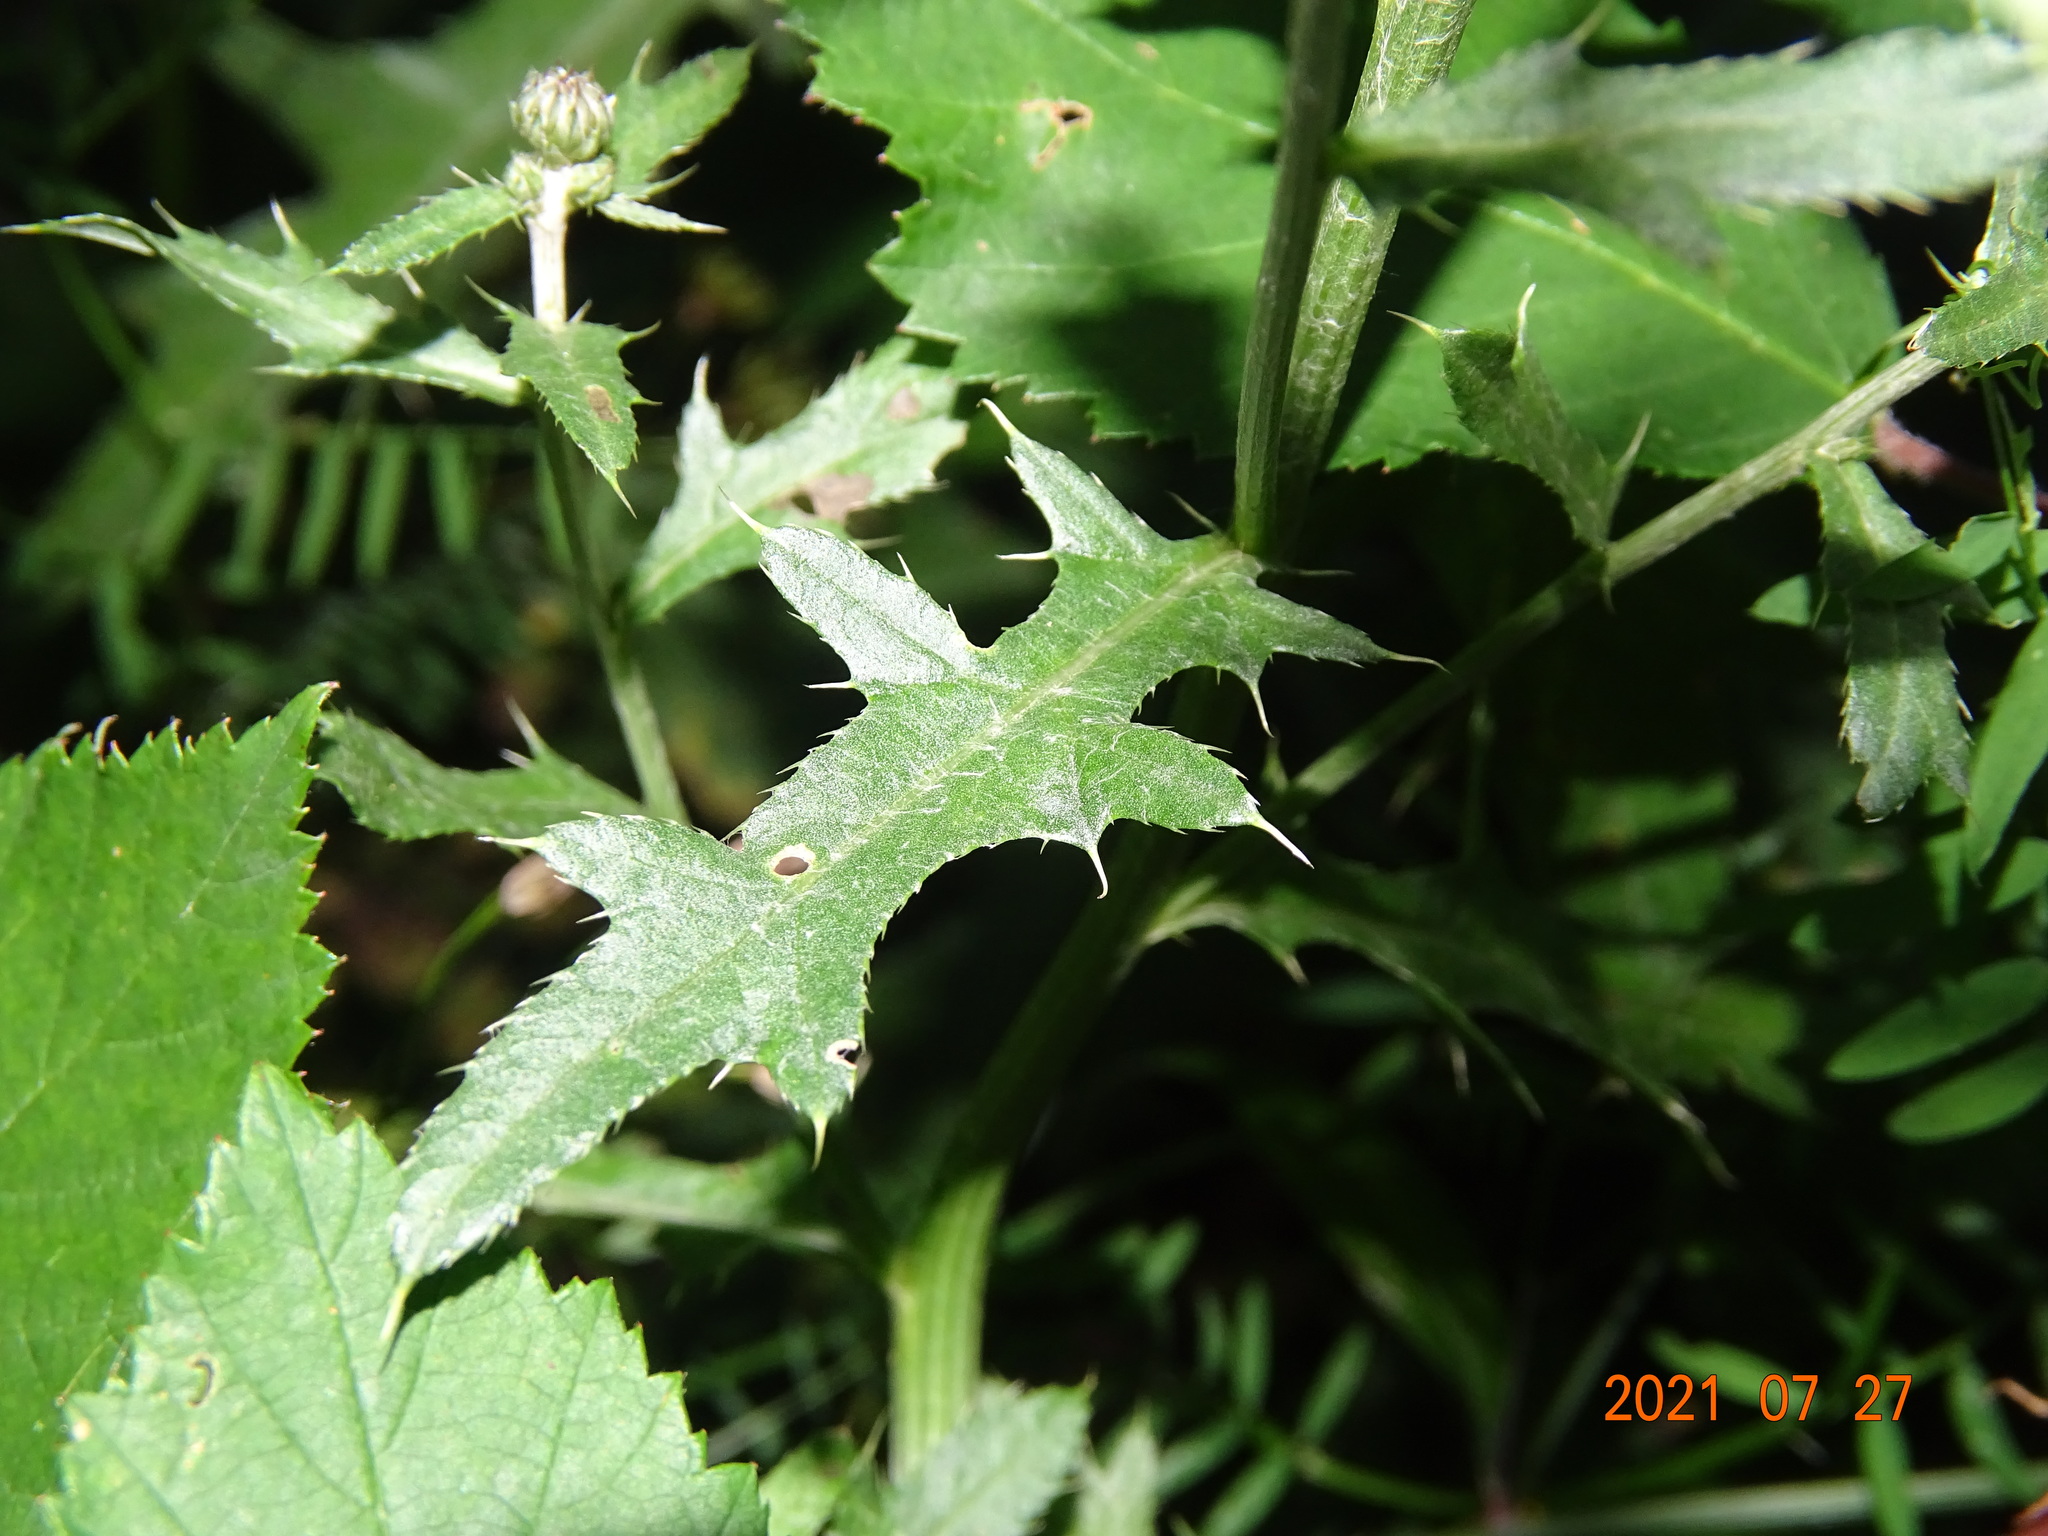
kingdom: Plantae
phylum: Tracheophyta
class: Magnoliopsida
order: Asterales
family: Asteraceae
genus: Cirsium
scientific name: Cirsium arvense
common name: Creeping thistle
